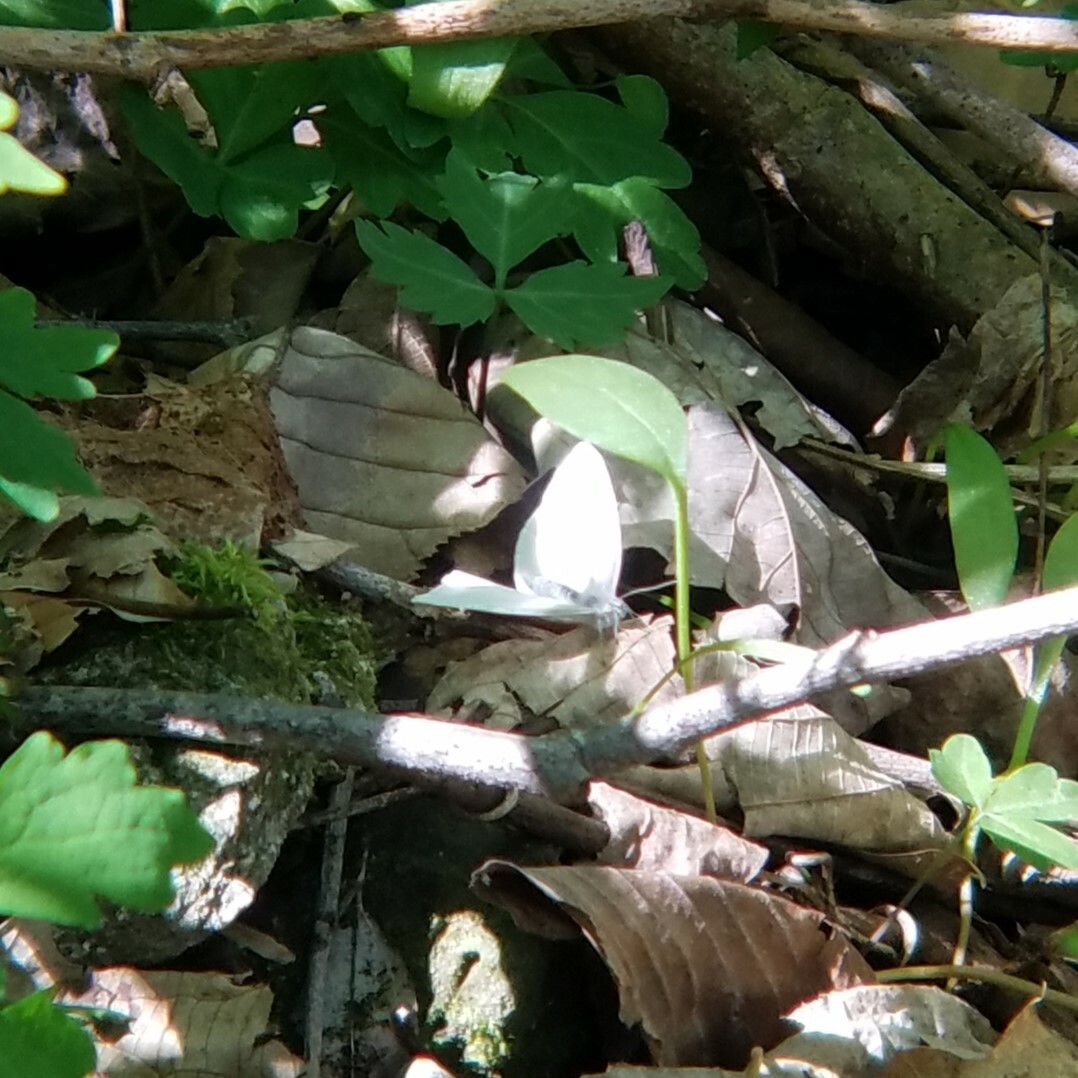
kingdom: Animalia
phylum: Arthropoda
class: Insecta
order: Lepidoptera
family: Pieridae
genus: Pieris
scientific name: Pieris virginiensis
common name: West virginia white
